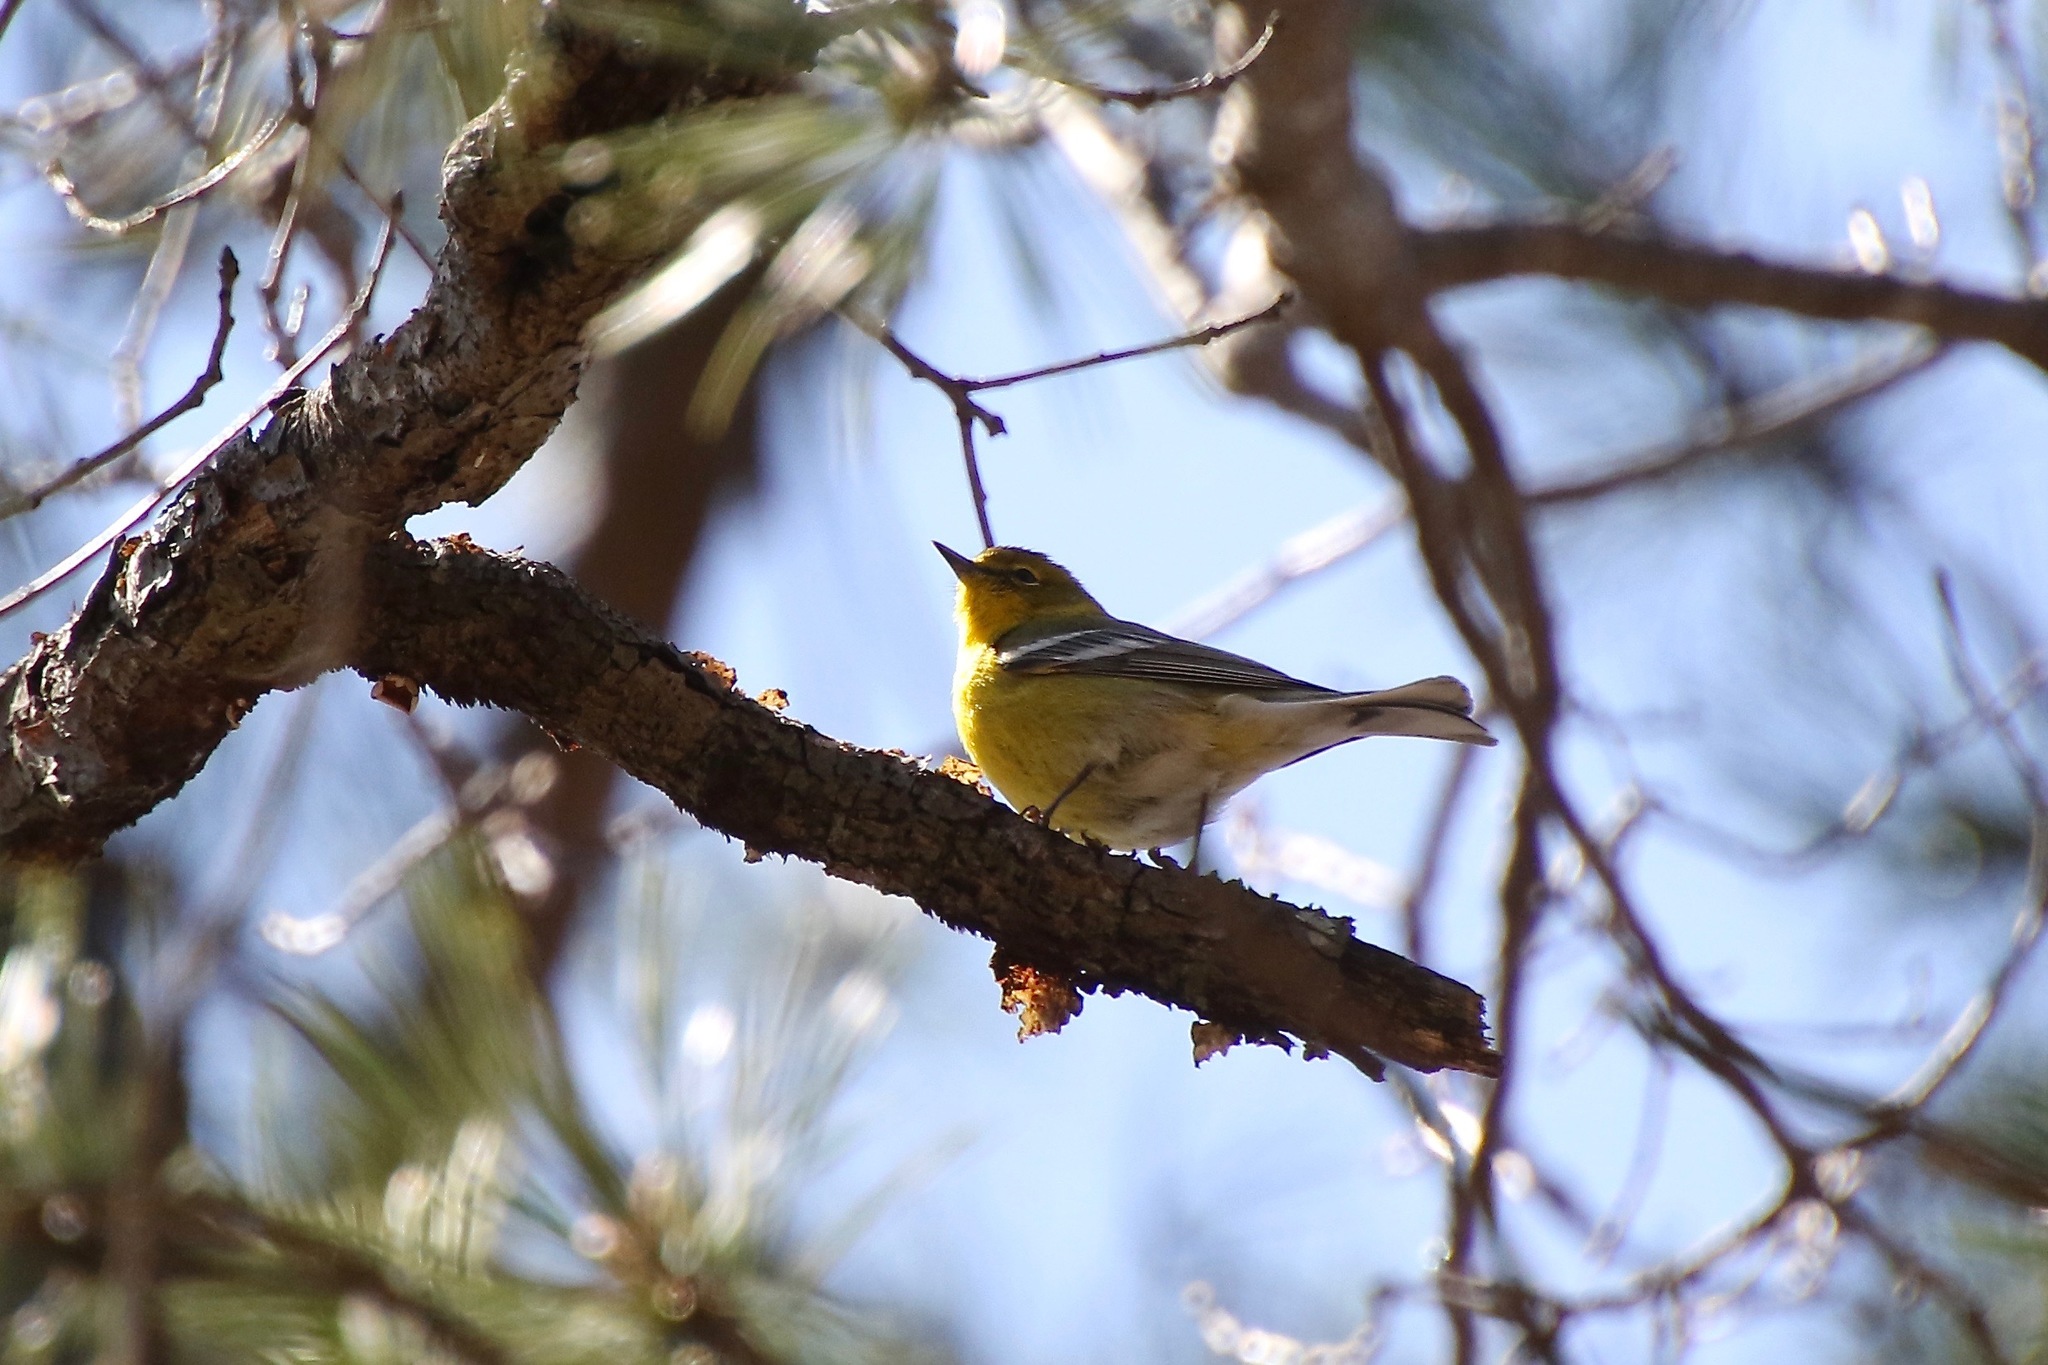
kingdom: Animalia
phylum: Chordata
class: Aves
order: Passeriformes
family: Parulidae
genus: Setophaga
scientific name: Setophaga pinus
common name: Pine warbler
